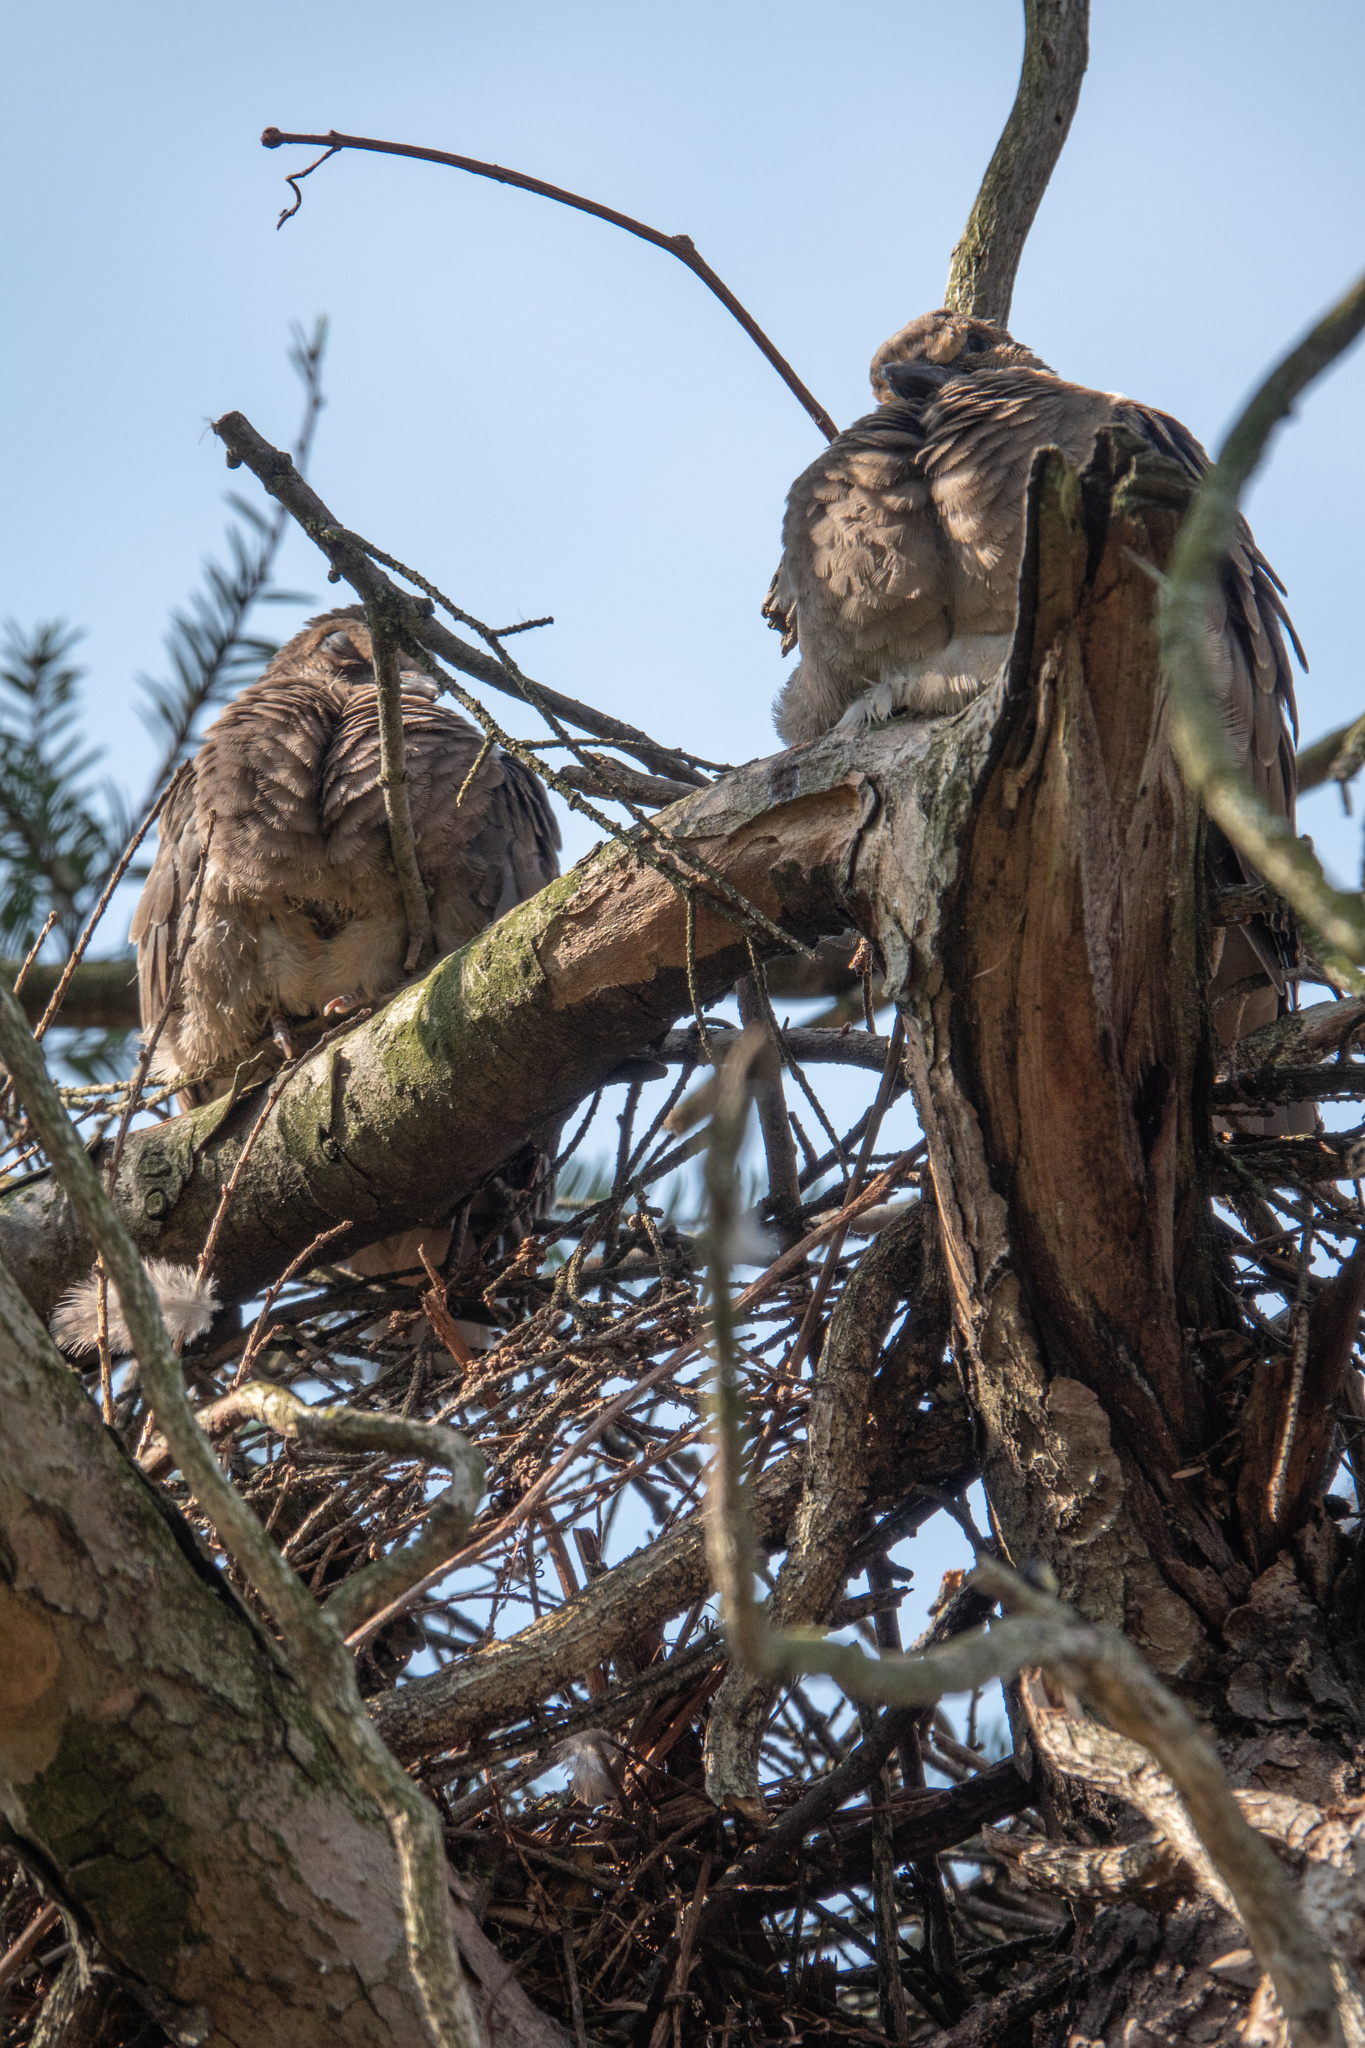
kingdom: Animalia
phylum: Chordata
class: Aves
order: Columbiformes
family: Columbidae
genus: Zenaida
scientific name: Zenaida macroura
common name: Mourning dove
